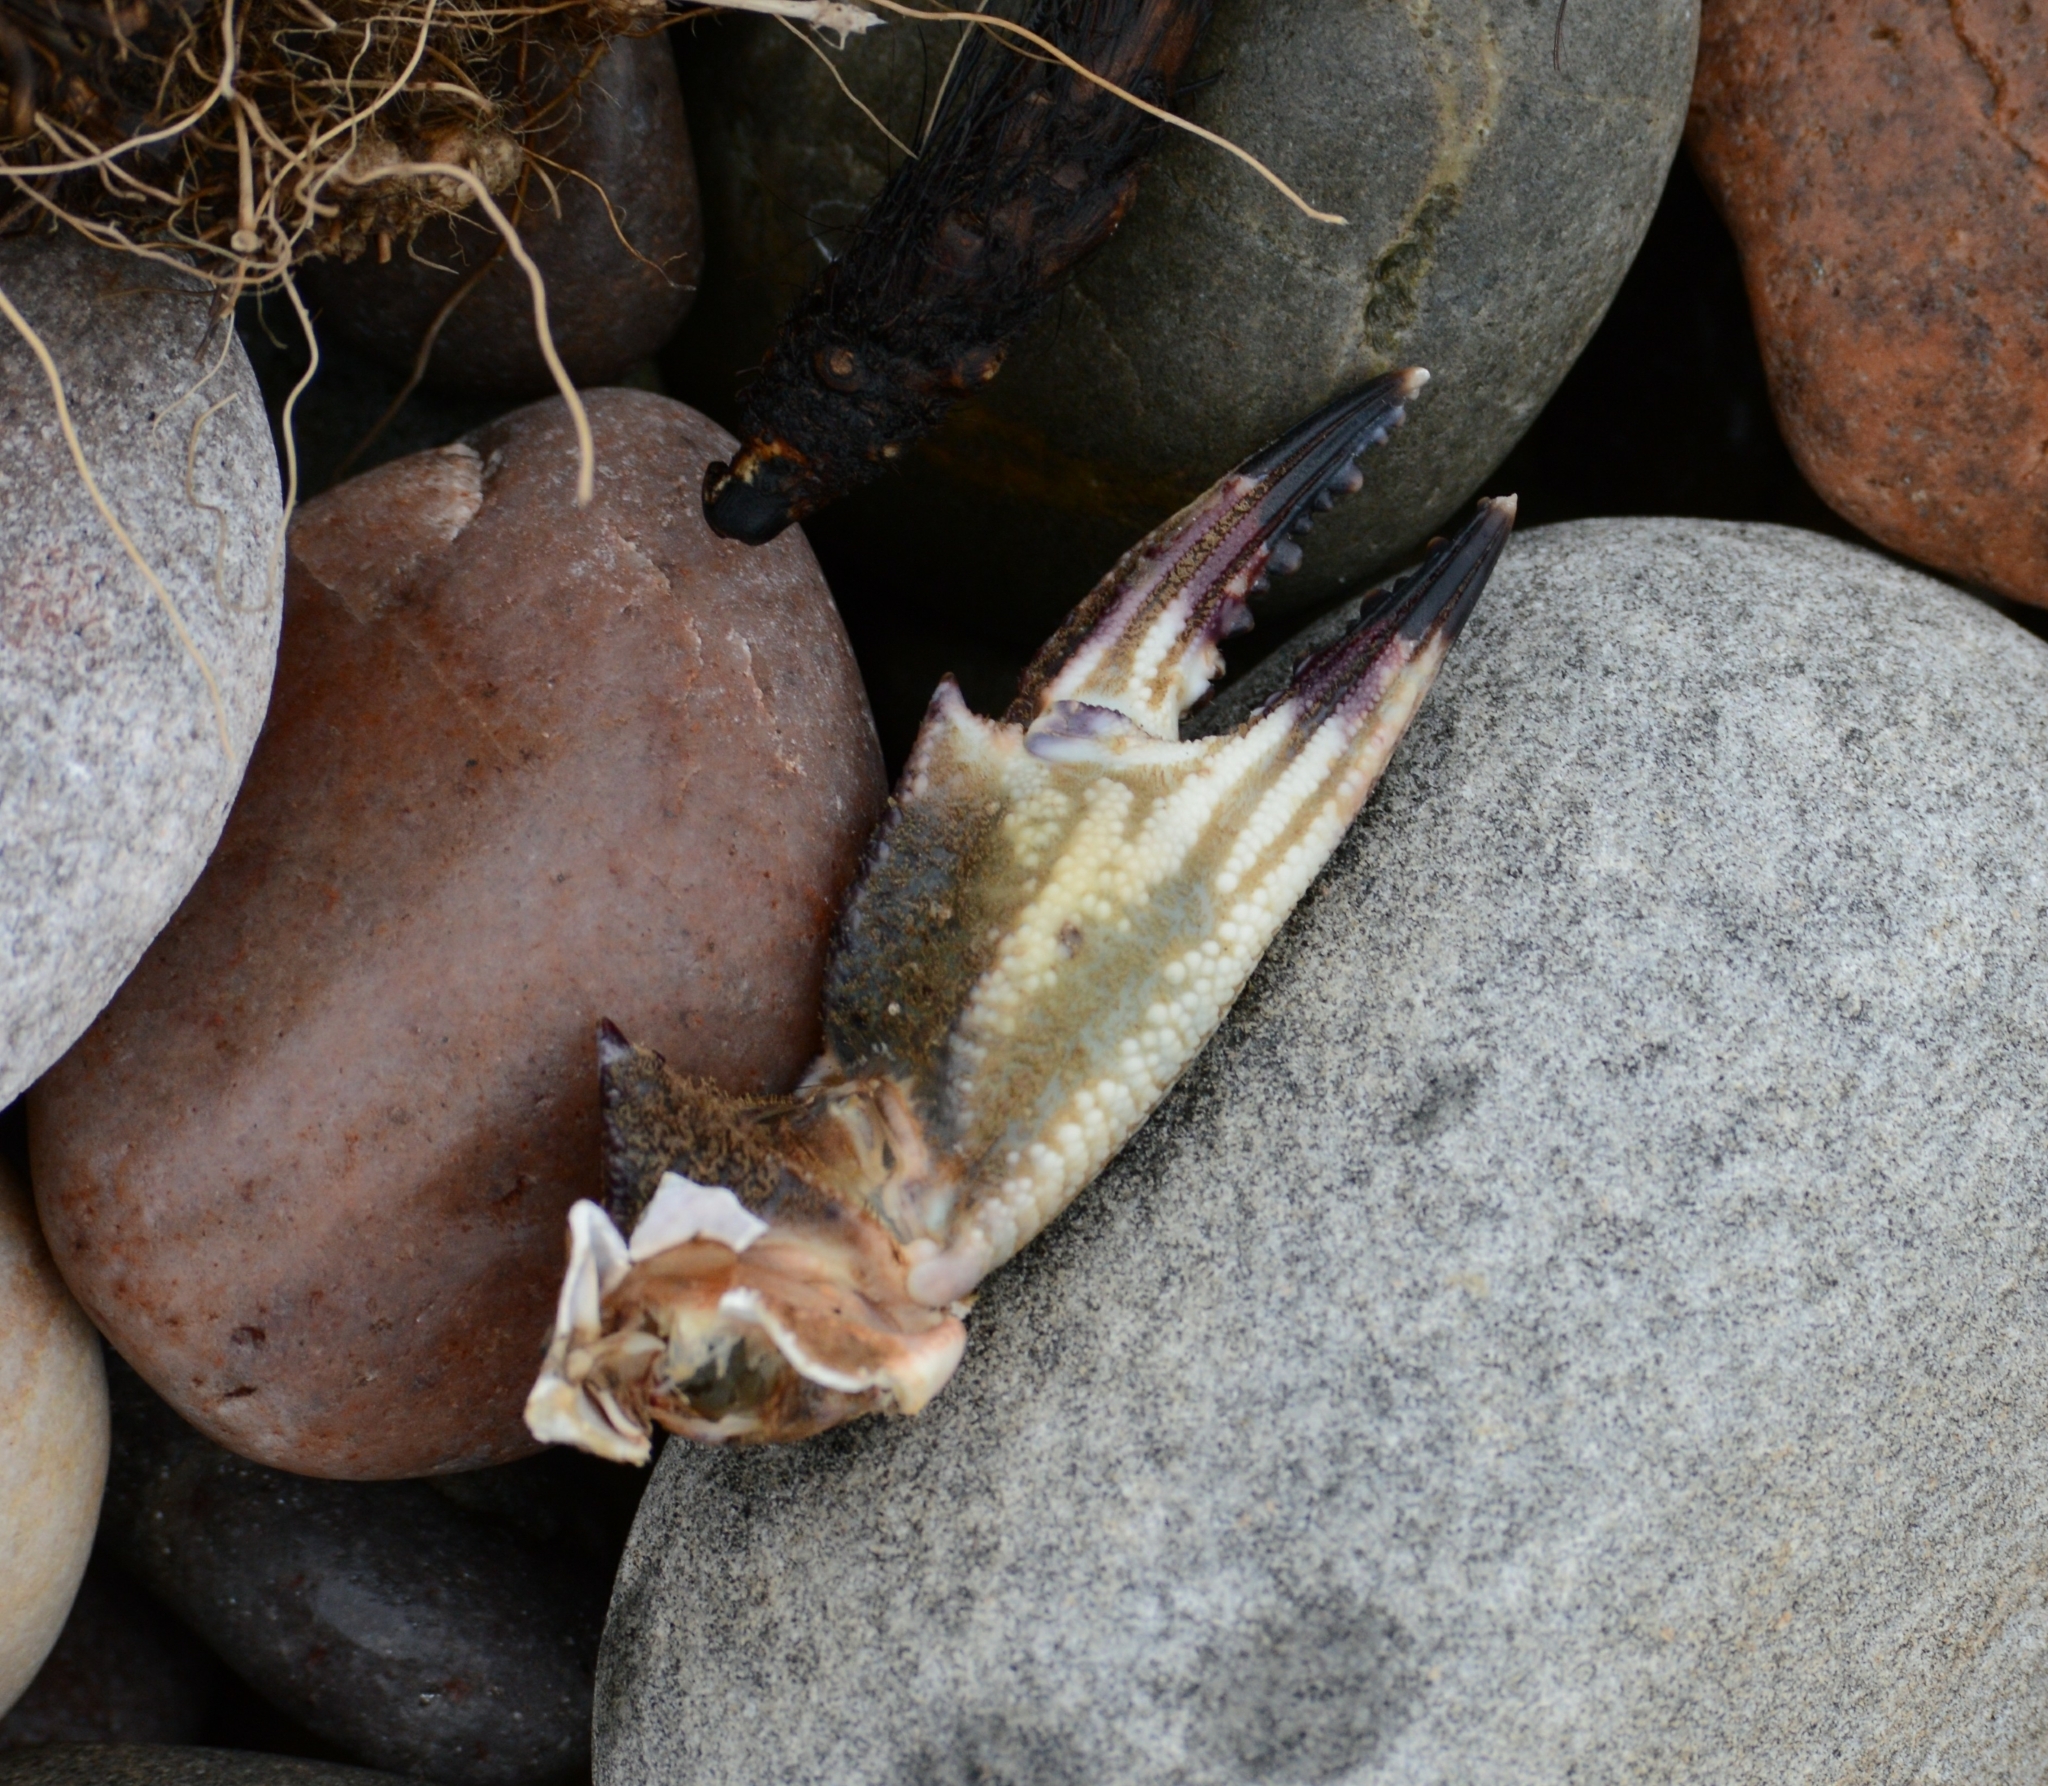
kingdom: Animalia
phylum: Arthropoda
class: Malacostraca
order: Decapoda
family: Polybiidae
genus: Necora
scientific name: Necora puber
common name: Velvet swimming crab
